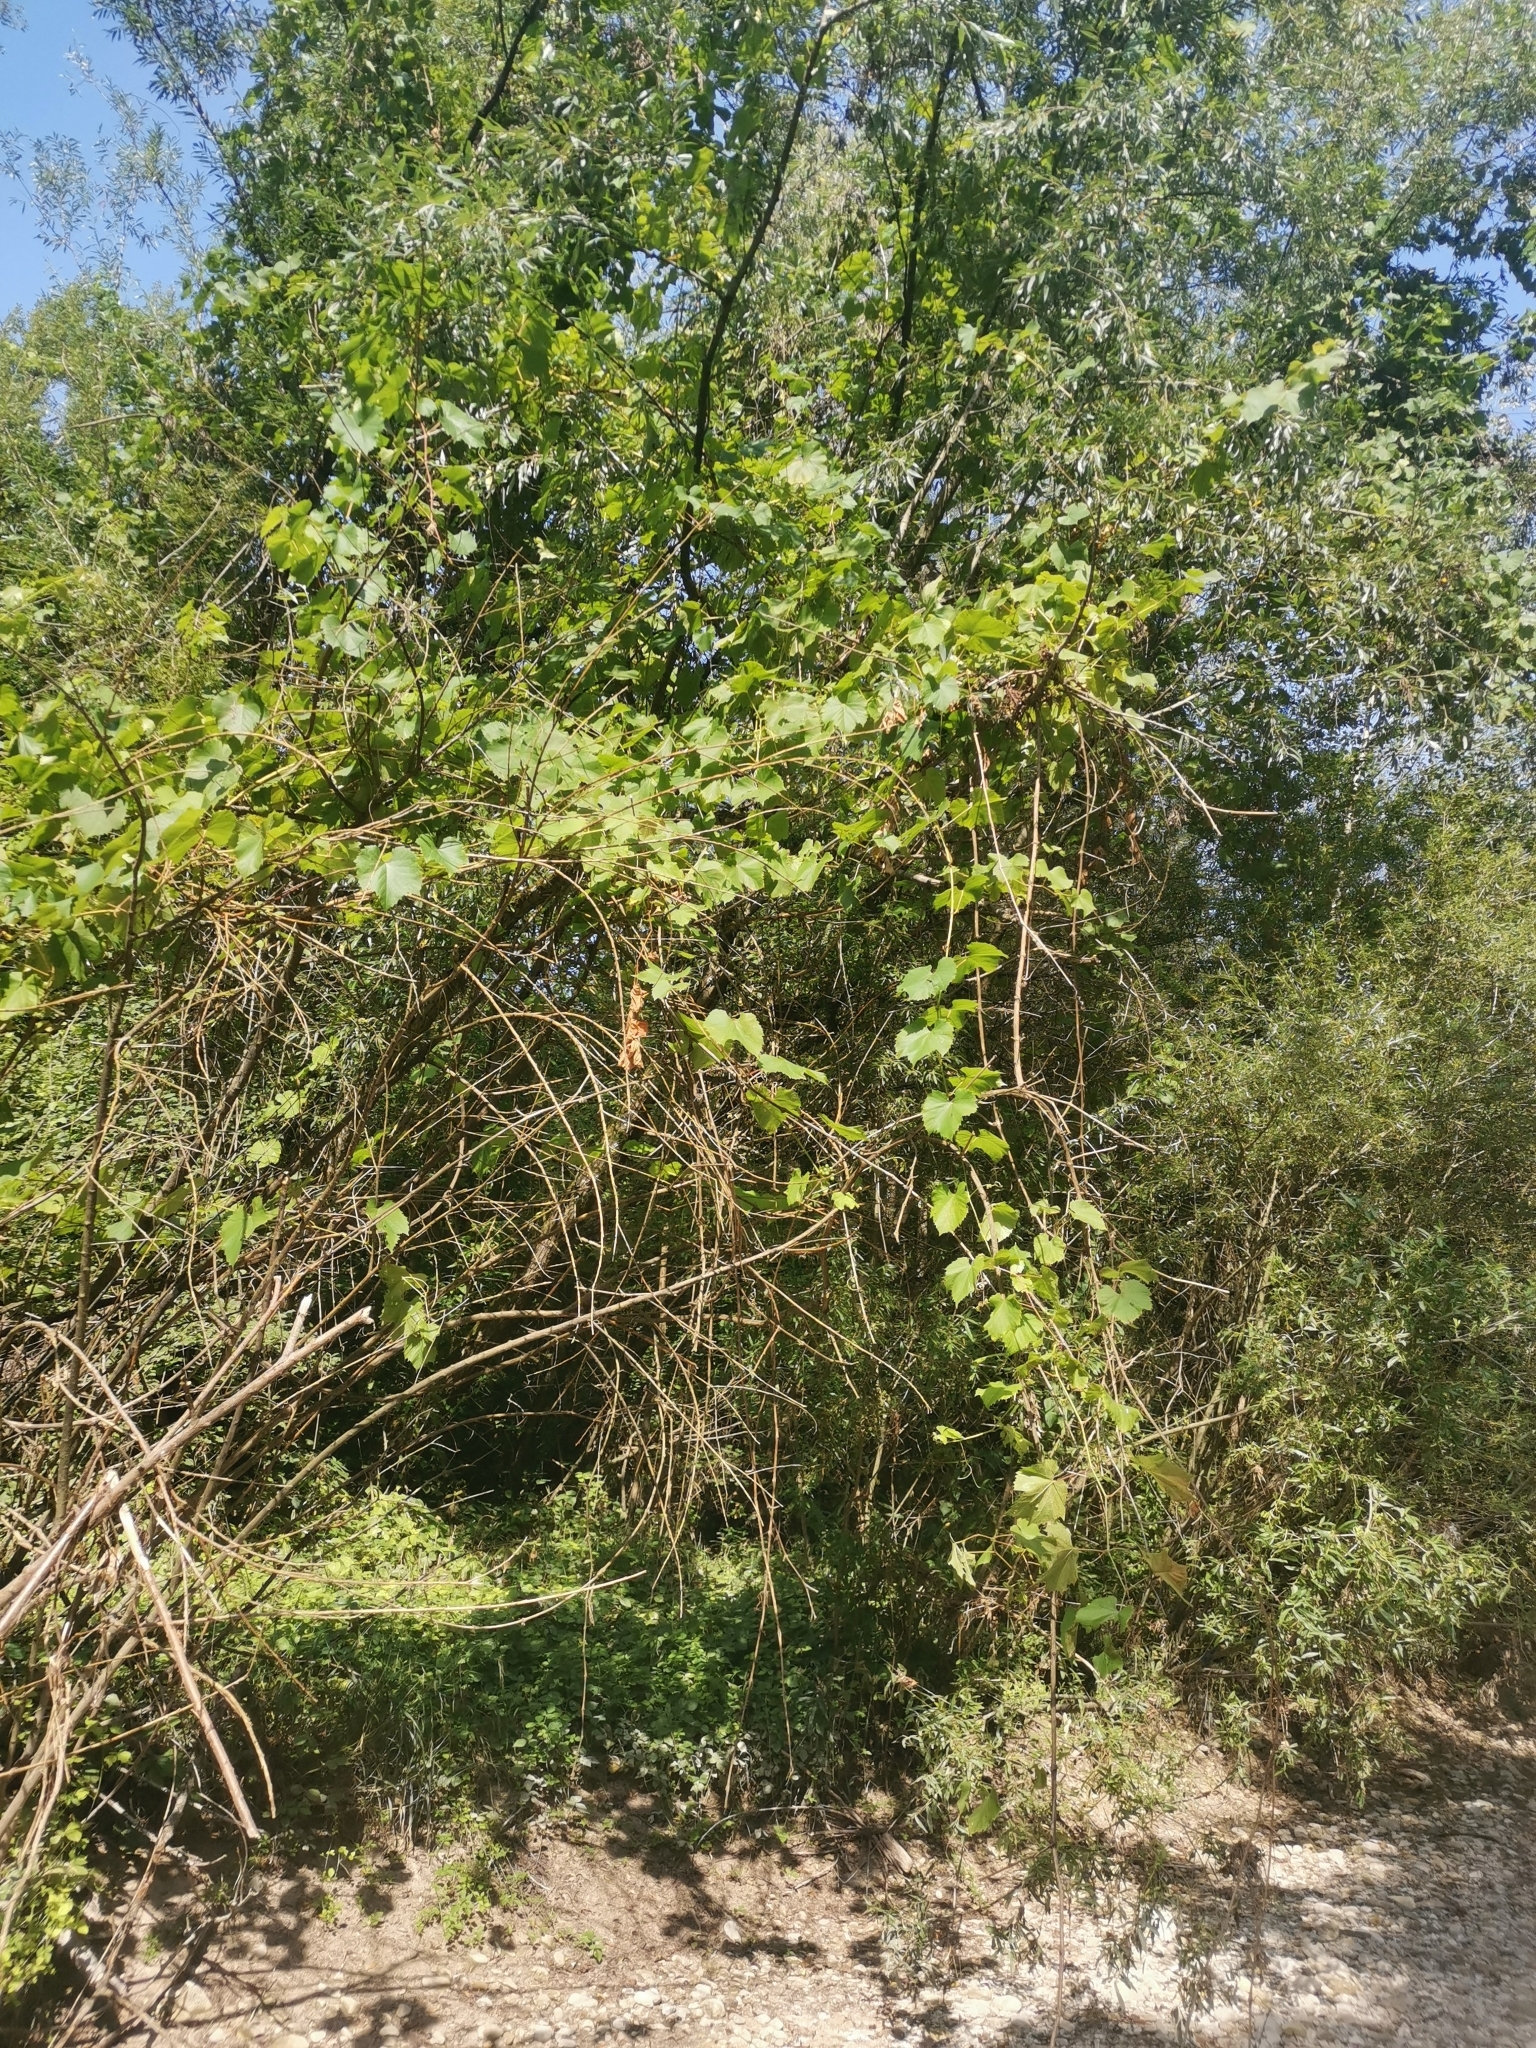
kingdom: Plantae
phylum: Tracheophyta
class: Magnoliopsida
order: Vitales
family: Vitaceae
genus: Vitis
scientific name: Vitis gmelinii
